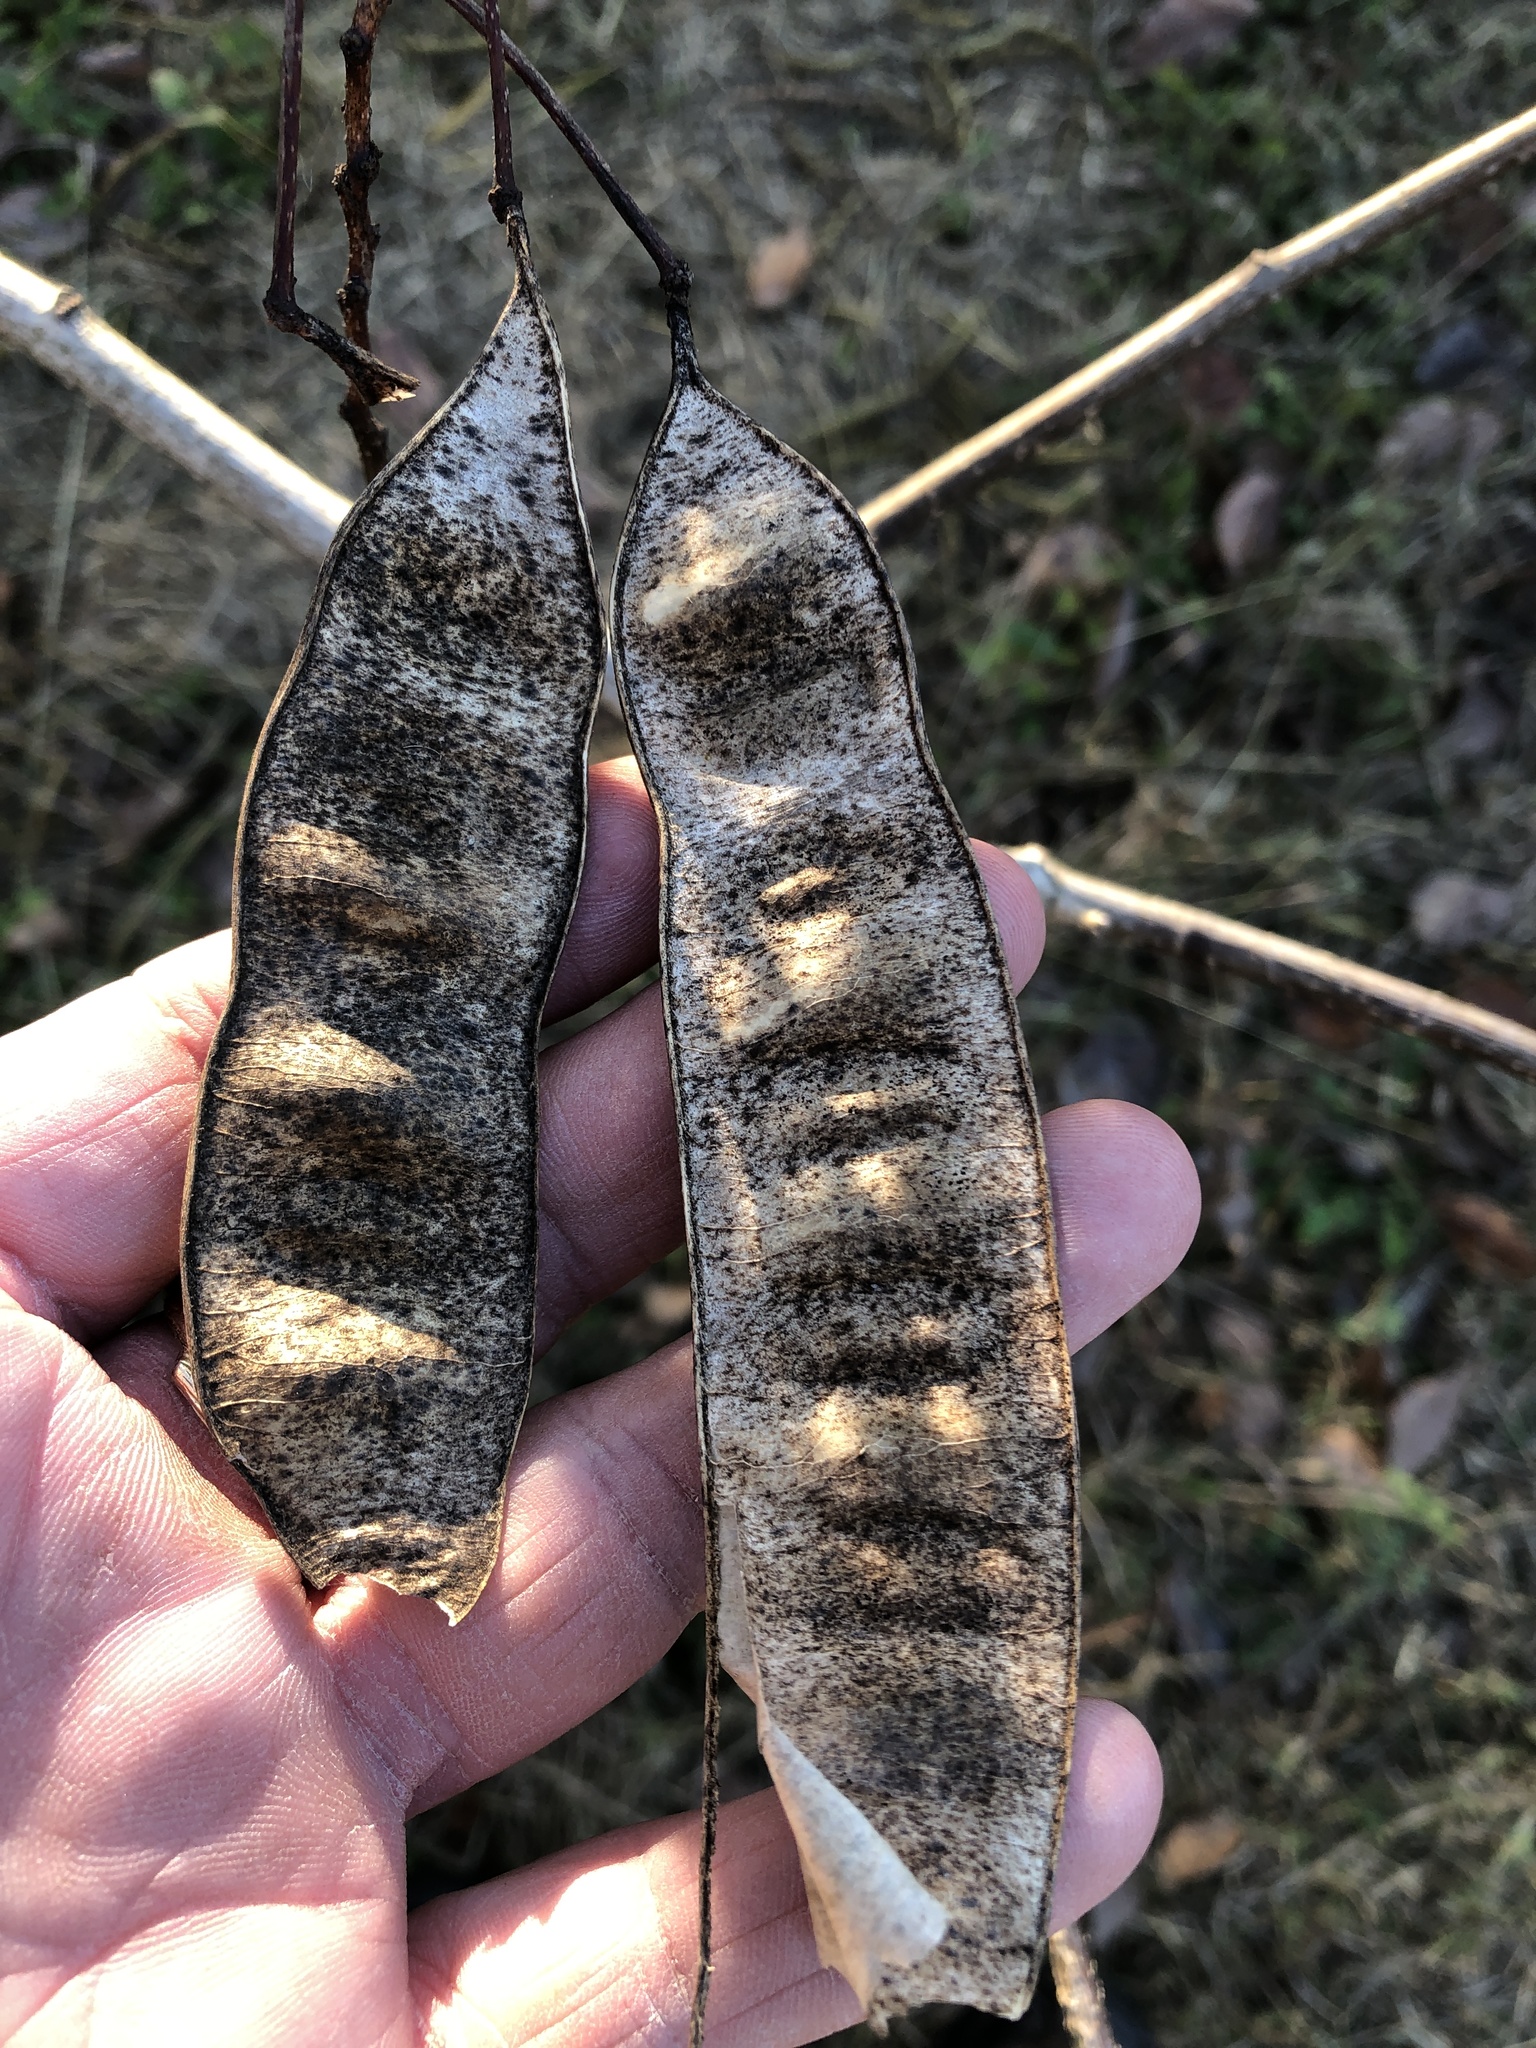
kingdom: Plantae
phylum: Tracheophyta
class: Magnoliopsida
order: Fabales
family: Fabaceae
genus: Albizia
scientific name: Albizia julibrissin
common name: Silktree
